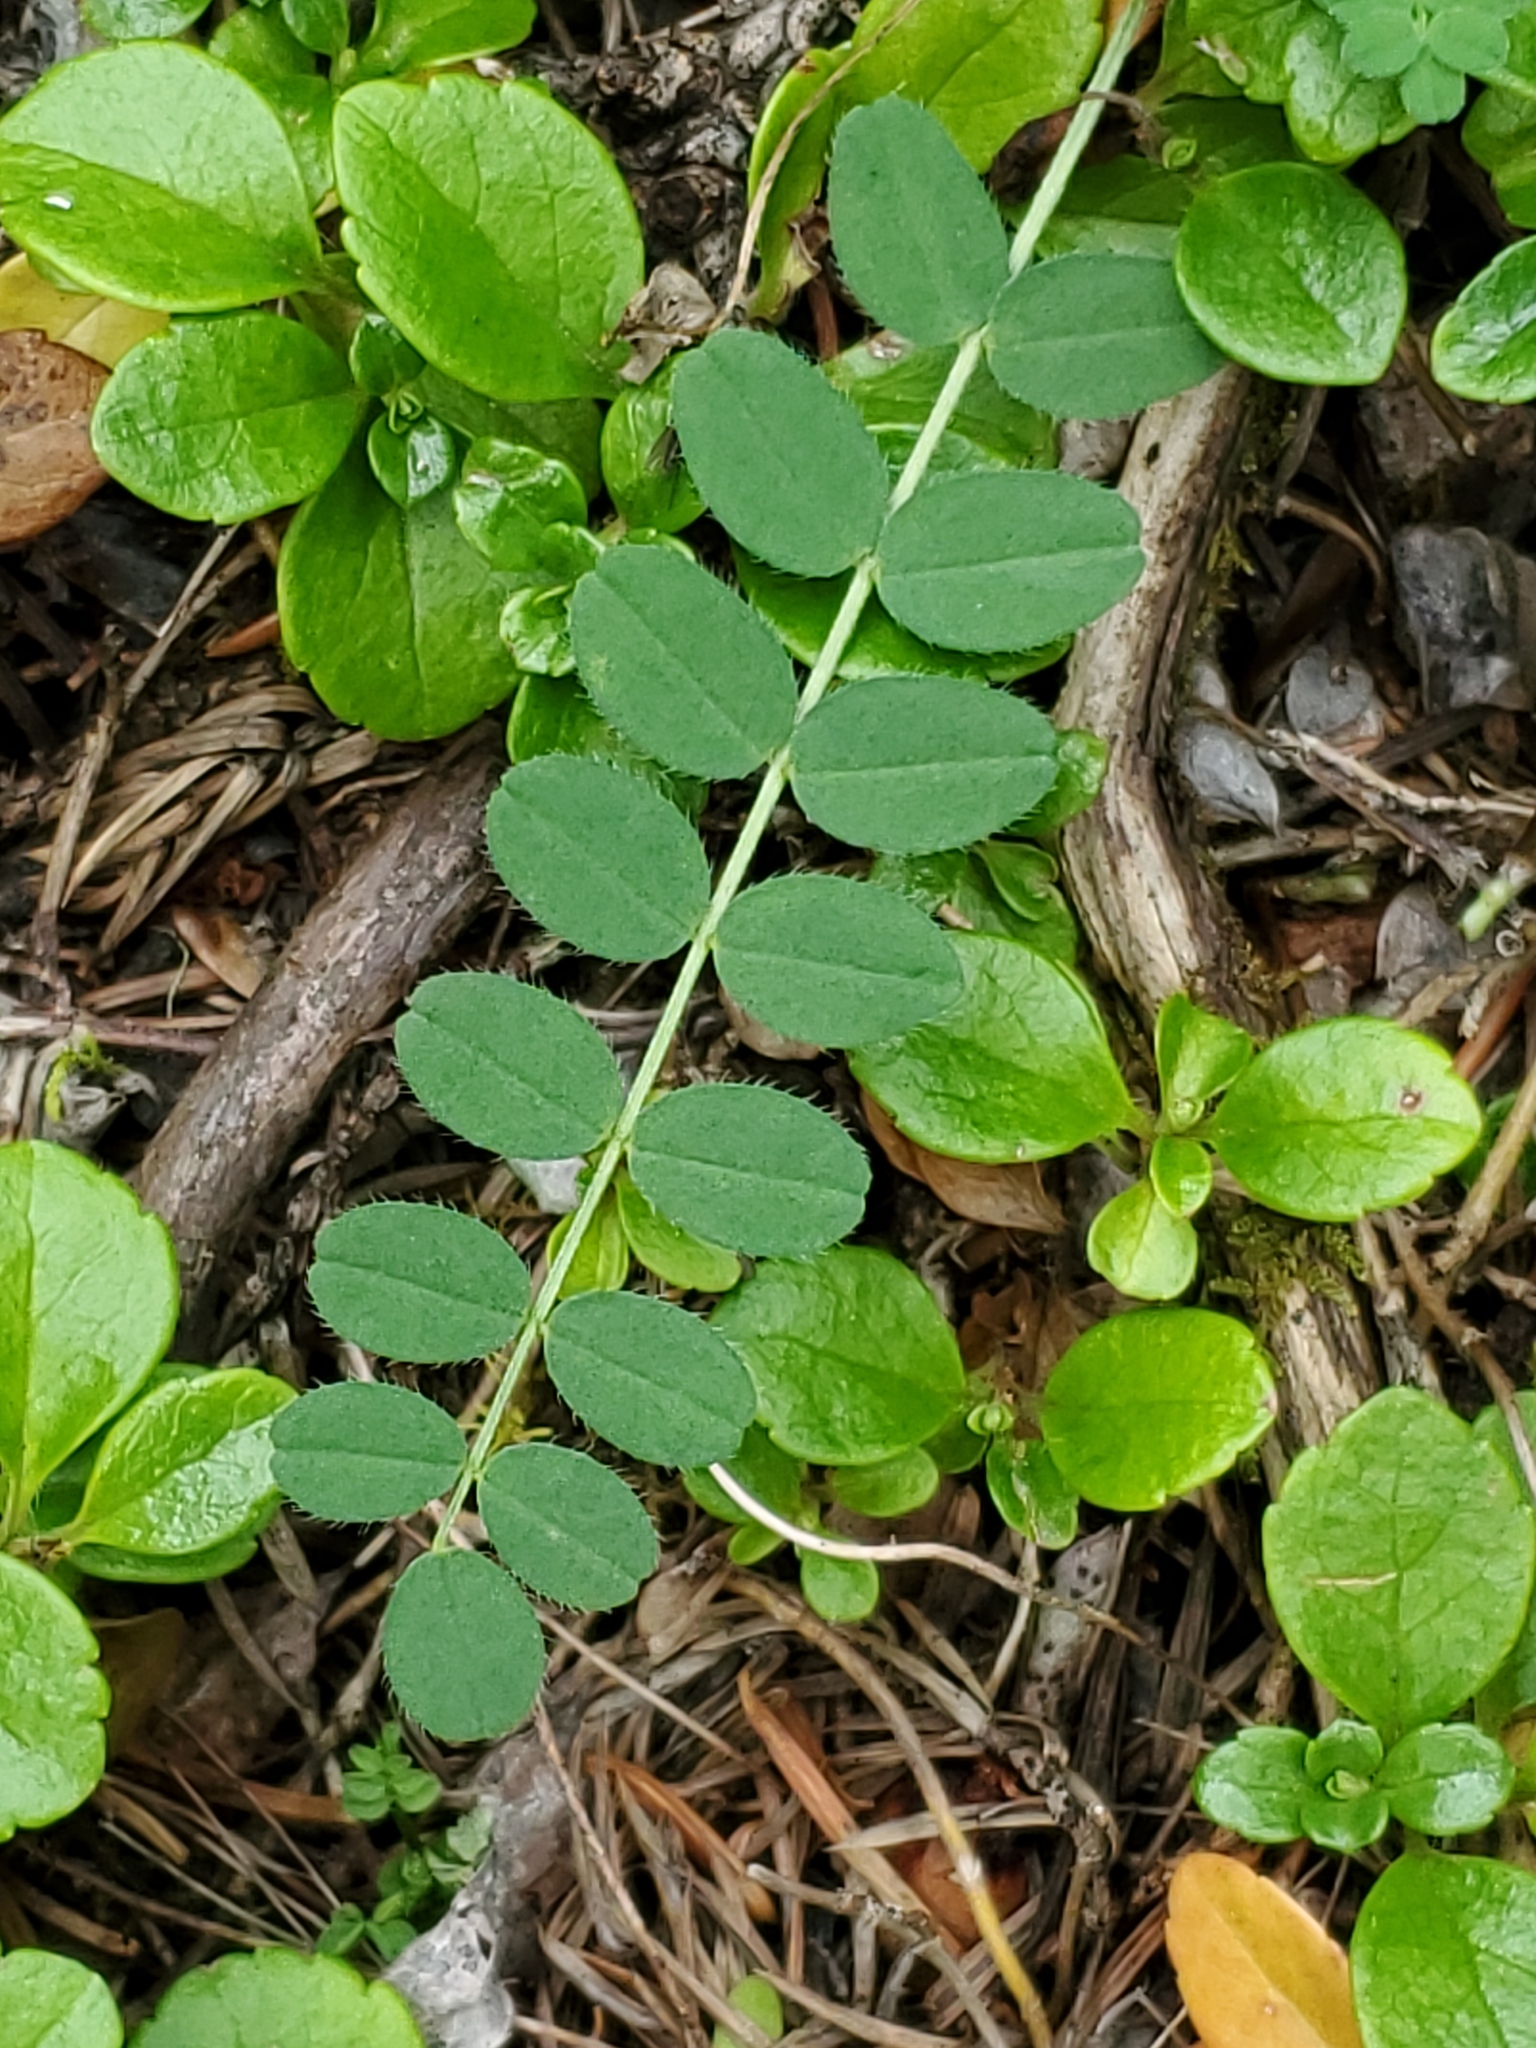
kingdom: Plantae
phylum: Tracheophyta
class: Magnoliopsida
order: Fabales
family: Fabaceae
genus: Astragalus
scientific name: Astragalus alpinus
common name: Alpine milk-vetch
